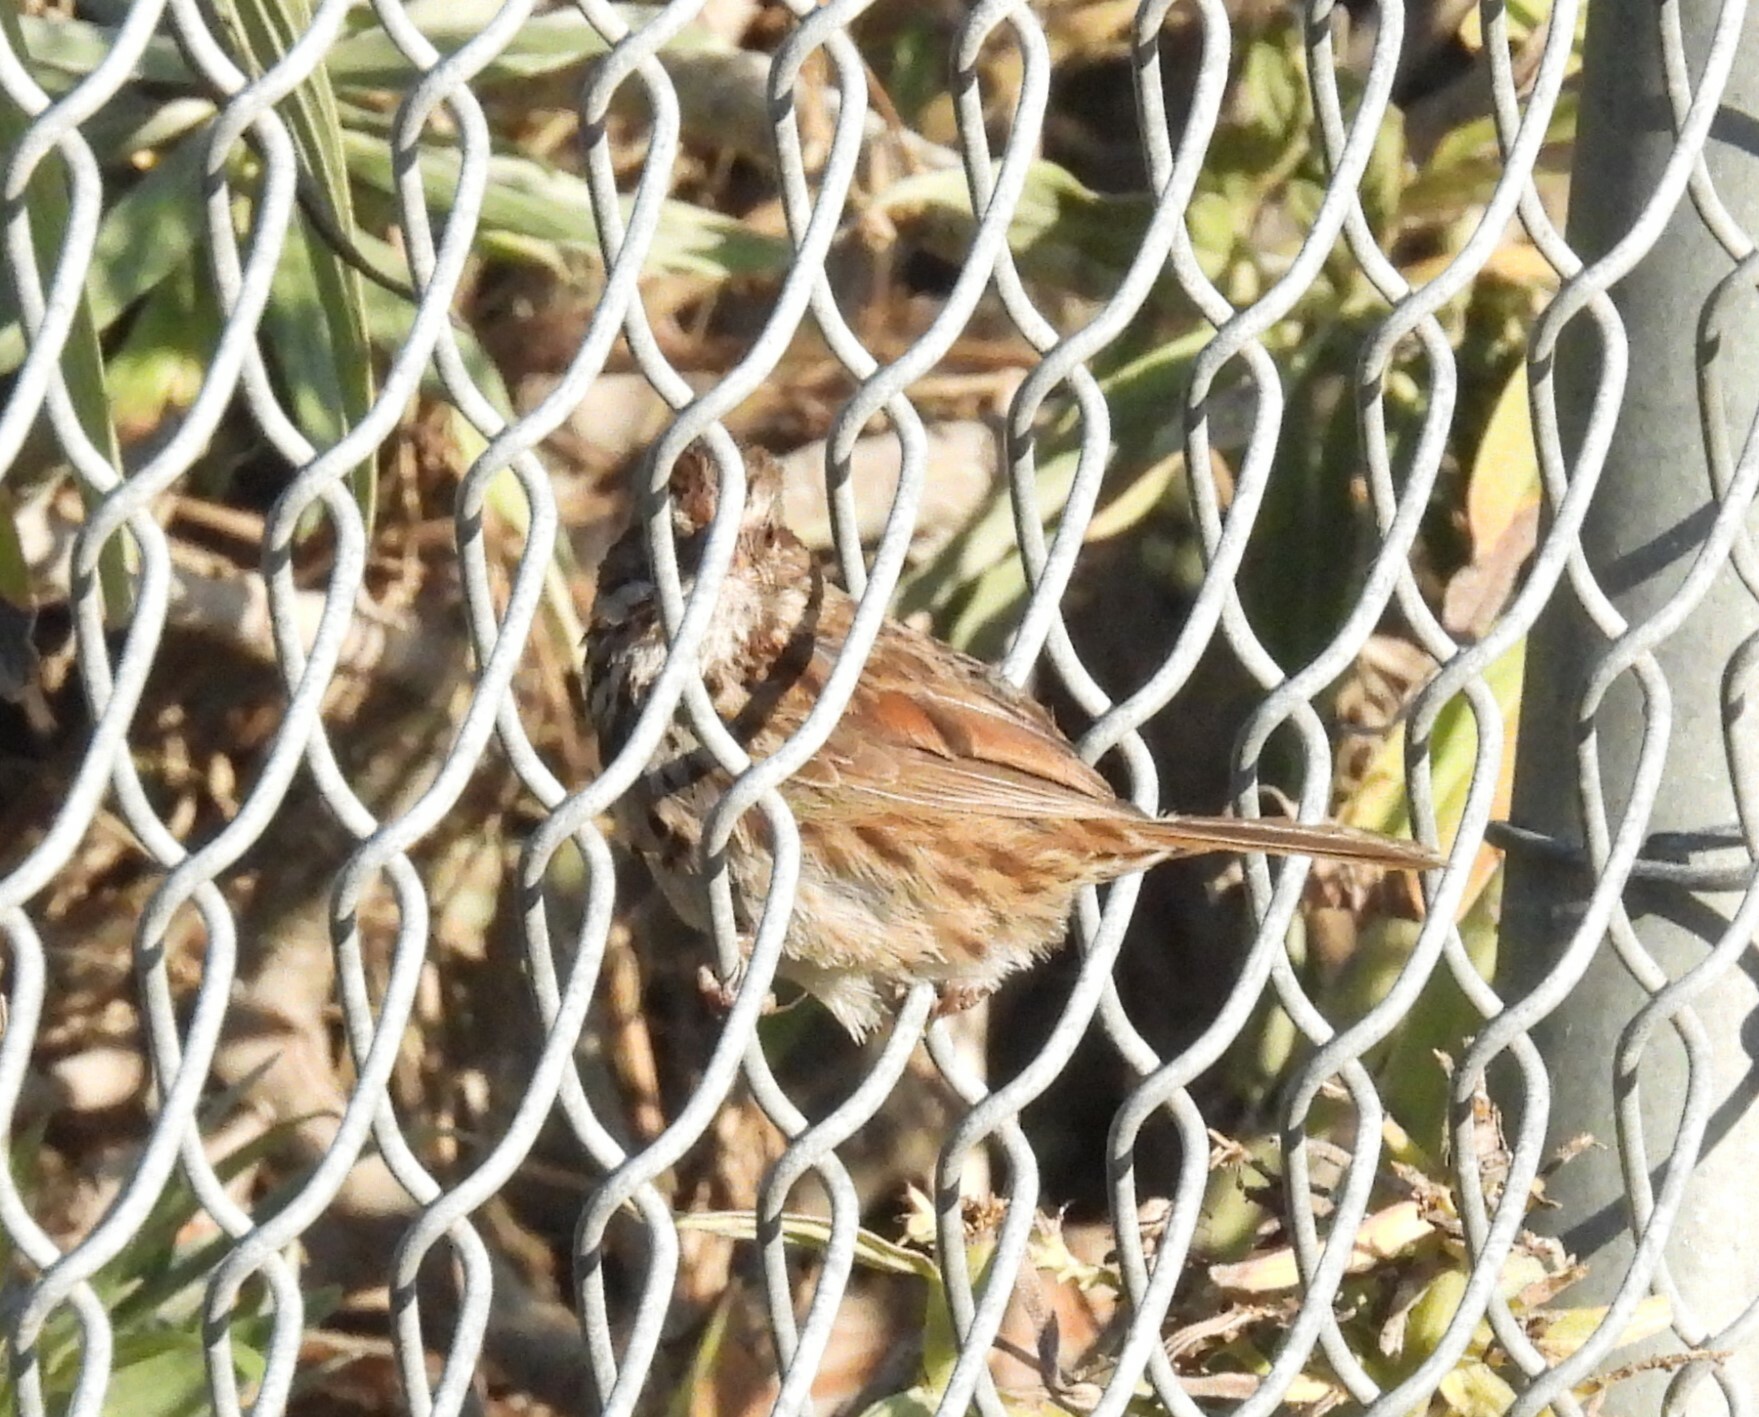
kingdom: Animalia
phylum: Chordata
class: Aves
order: Passeriformes
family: Passerellidae
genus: Melospiza
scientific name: Melospiza melodia
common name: Song sparrow
